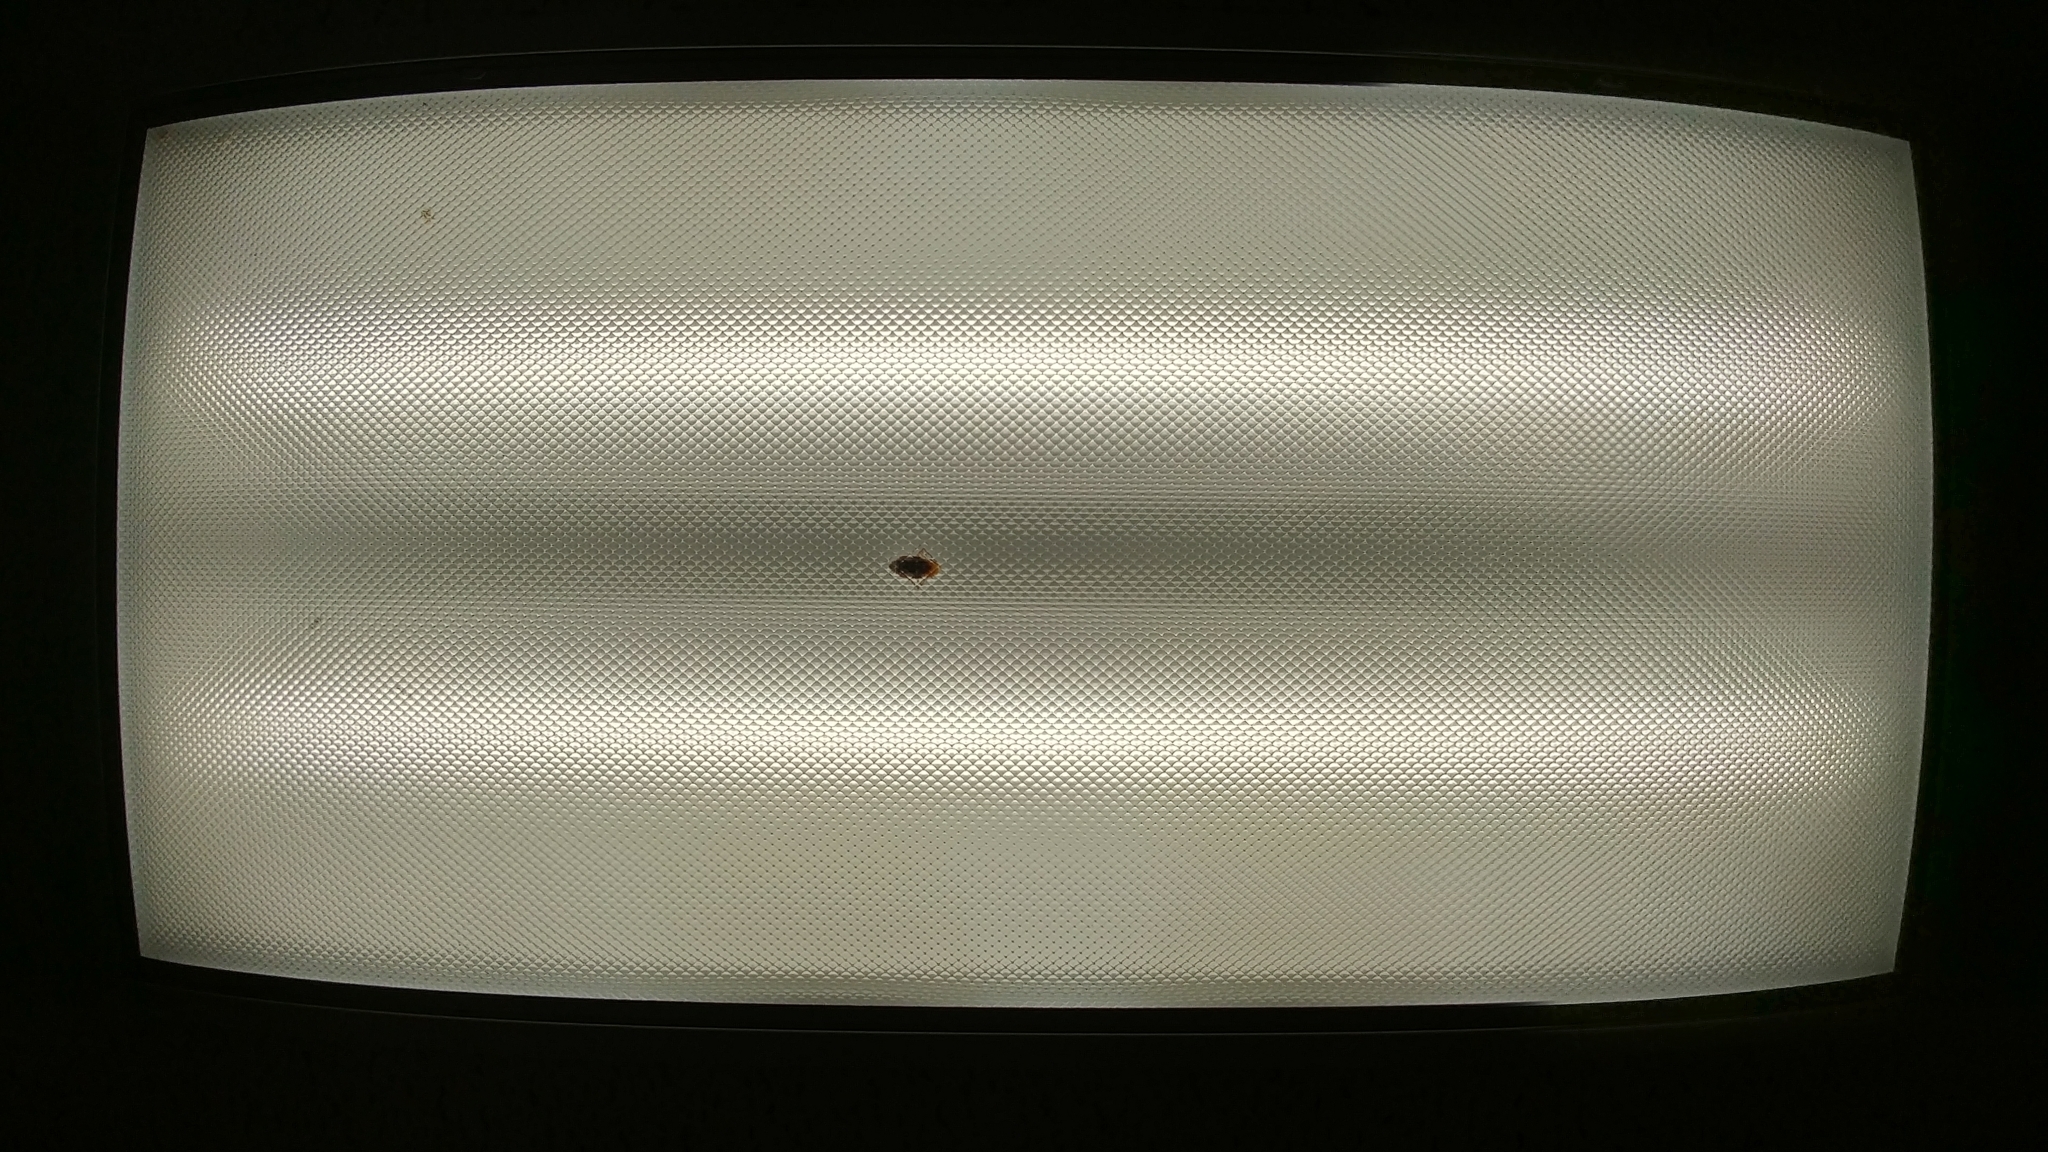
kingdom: Animalia
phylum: Arthropoda
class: Insecta
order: Blattodea
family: Blattidae
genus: Periplaneta
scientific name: Periplaneta americana
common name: American cockroach
